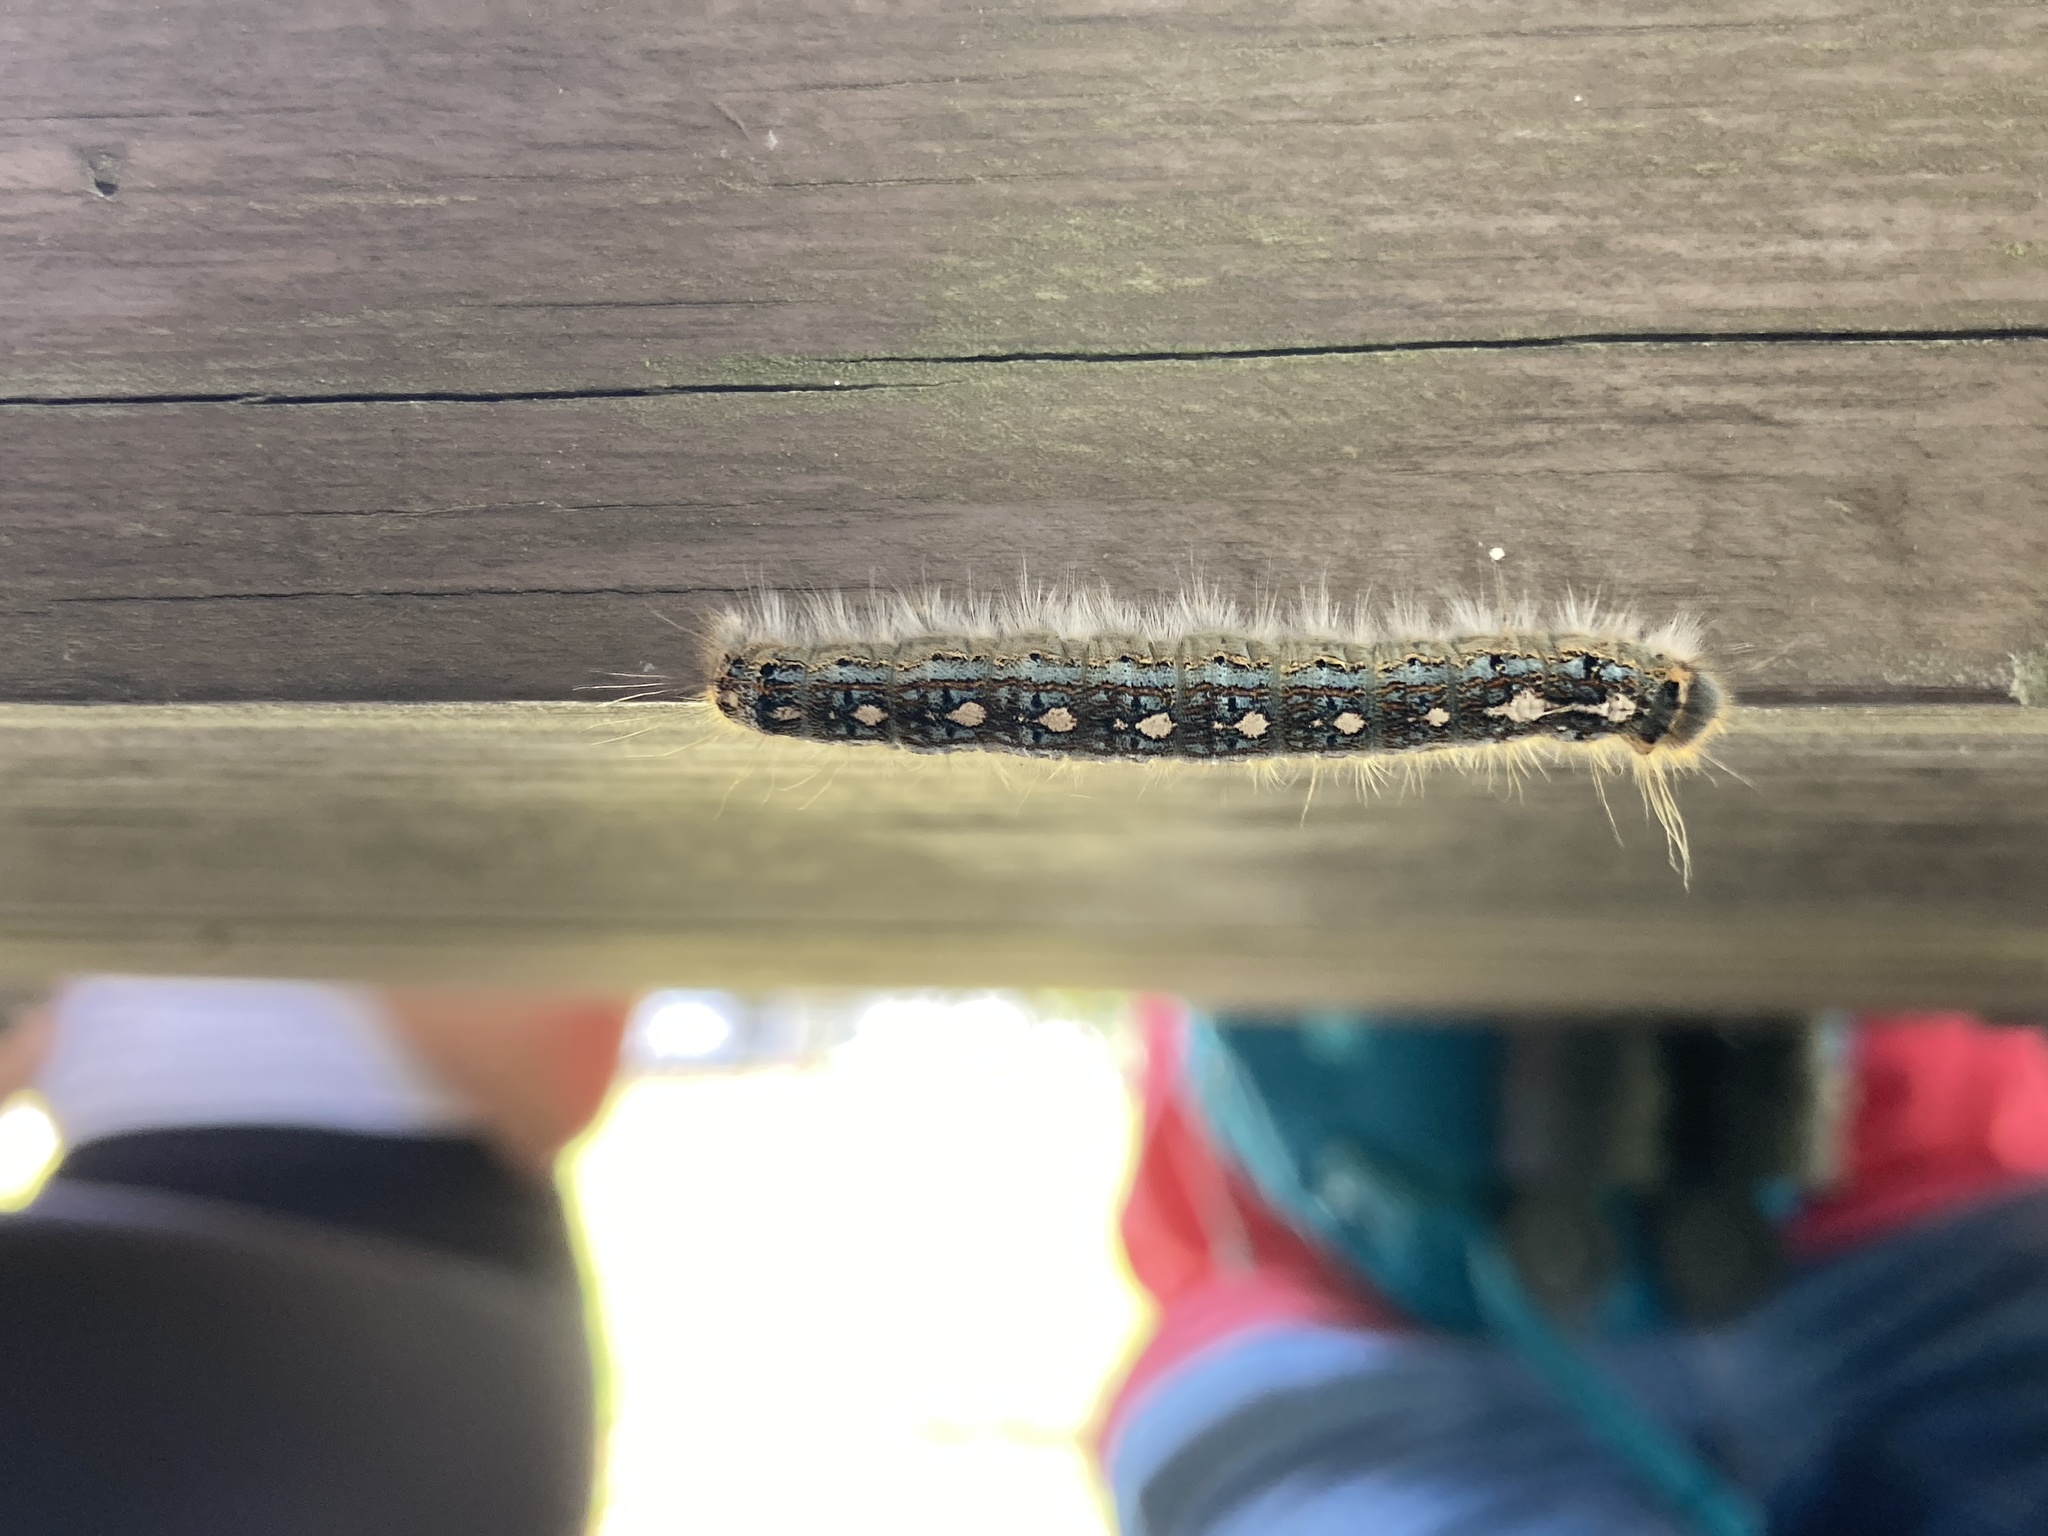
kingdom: Animalia
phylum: Arthropoda
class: Insecta
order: Lepidoptera
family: Lasiocampidae
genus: Malacosoma
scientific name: Malacosoma disstria
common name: Forest tent caterpillar
